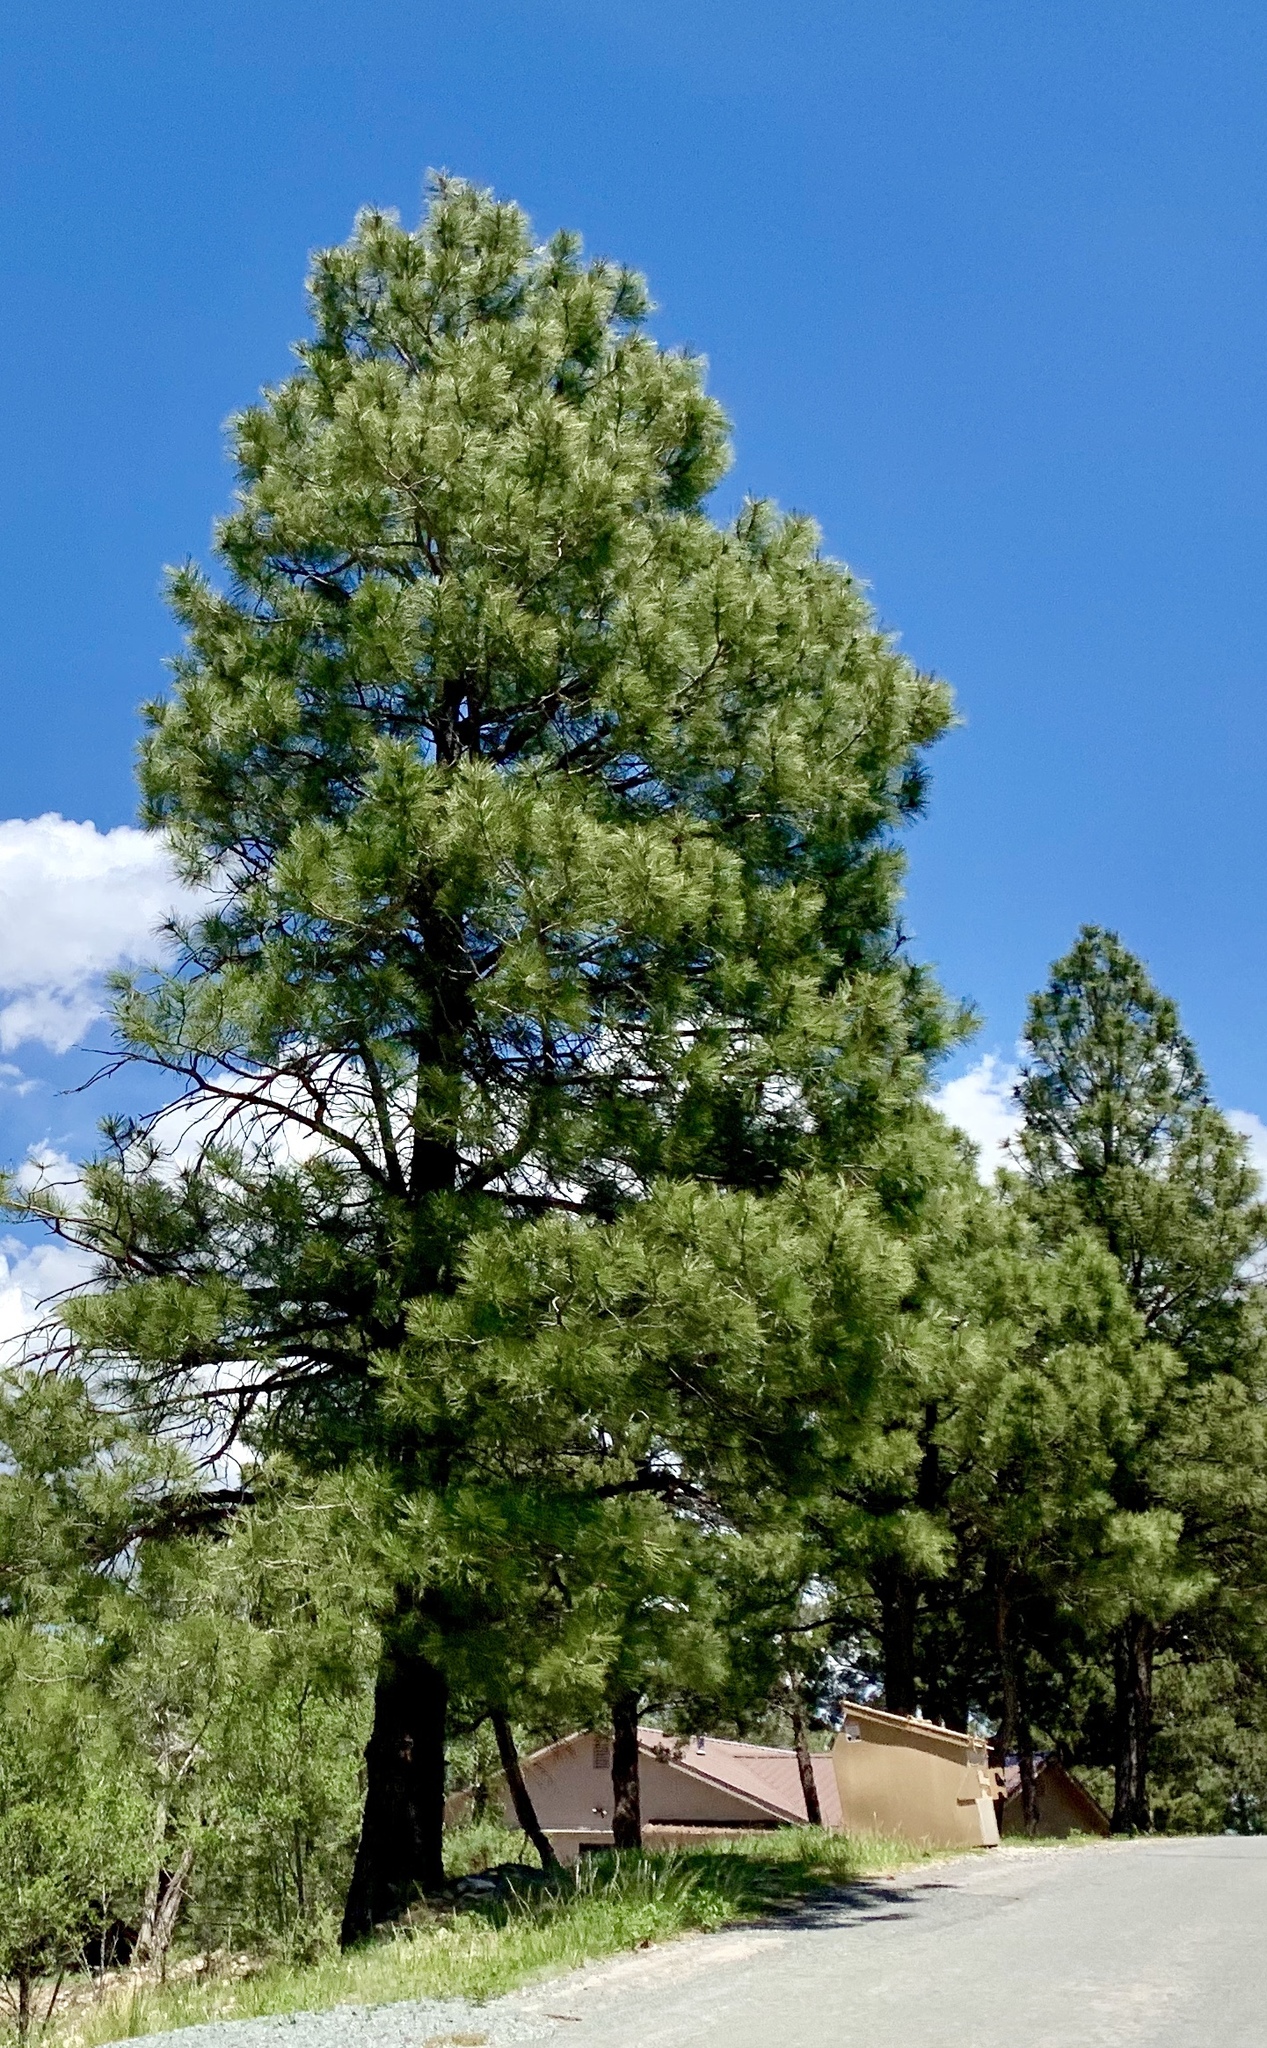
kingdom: Plantae
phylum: Tracheophyta
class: Pinopsida
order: Pinales
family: Pinaceae
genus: Pinus
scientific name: Pinus ponderosa
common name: Western yellow-pine
